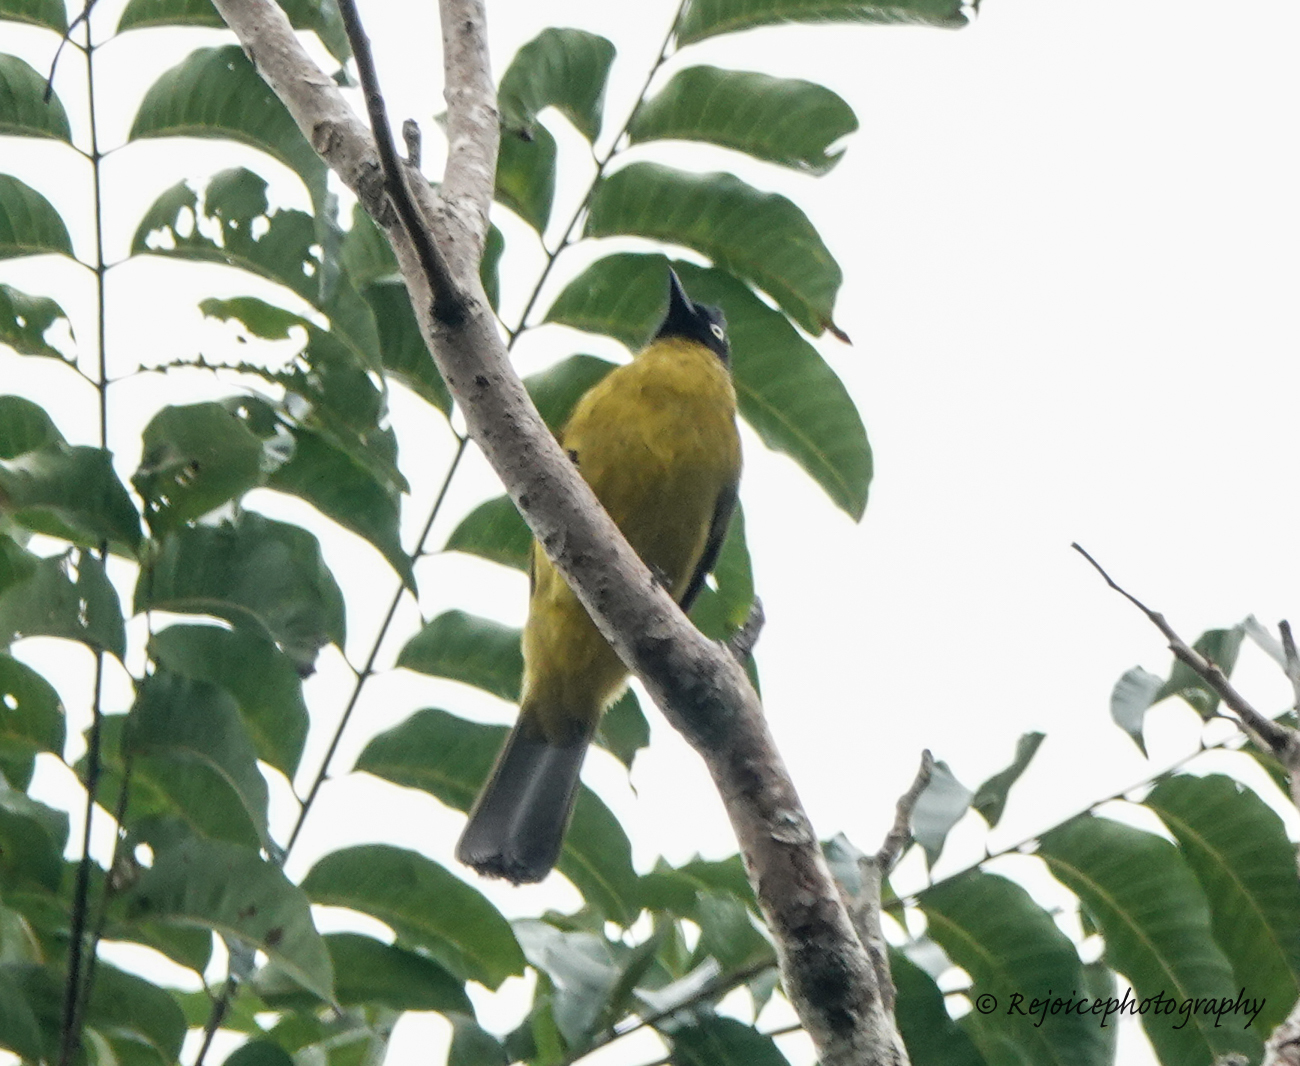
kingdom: Animalia
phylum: Chordata
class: Aves
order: Passeriformes
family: Pycnonotidae
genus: Pycnonotus
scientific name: Pycnonotus flaviventris
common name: Black-crested bulbul
